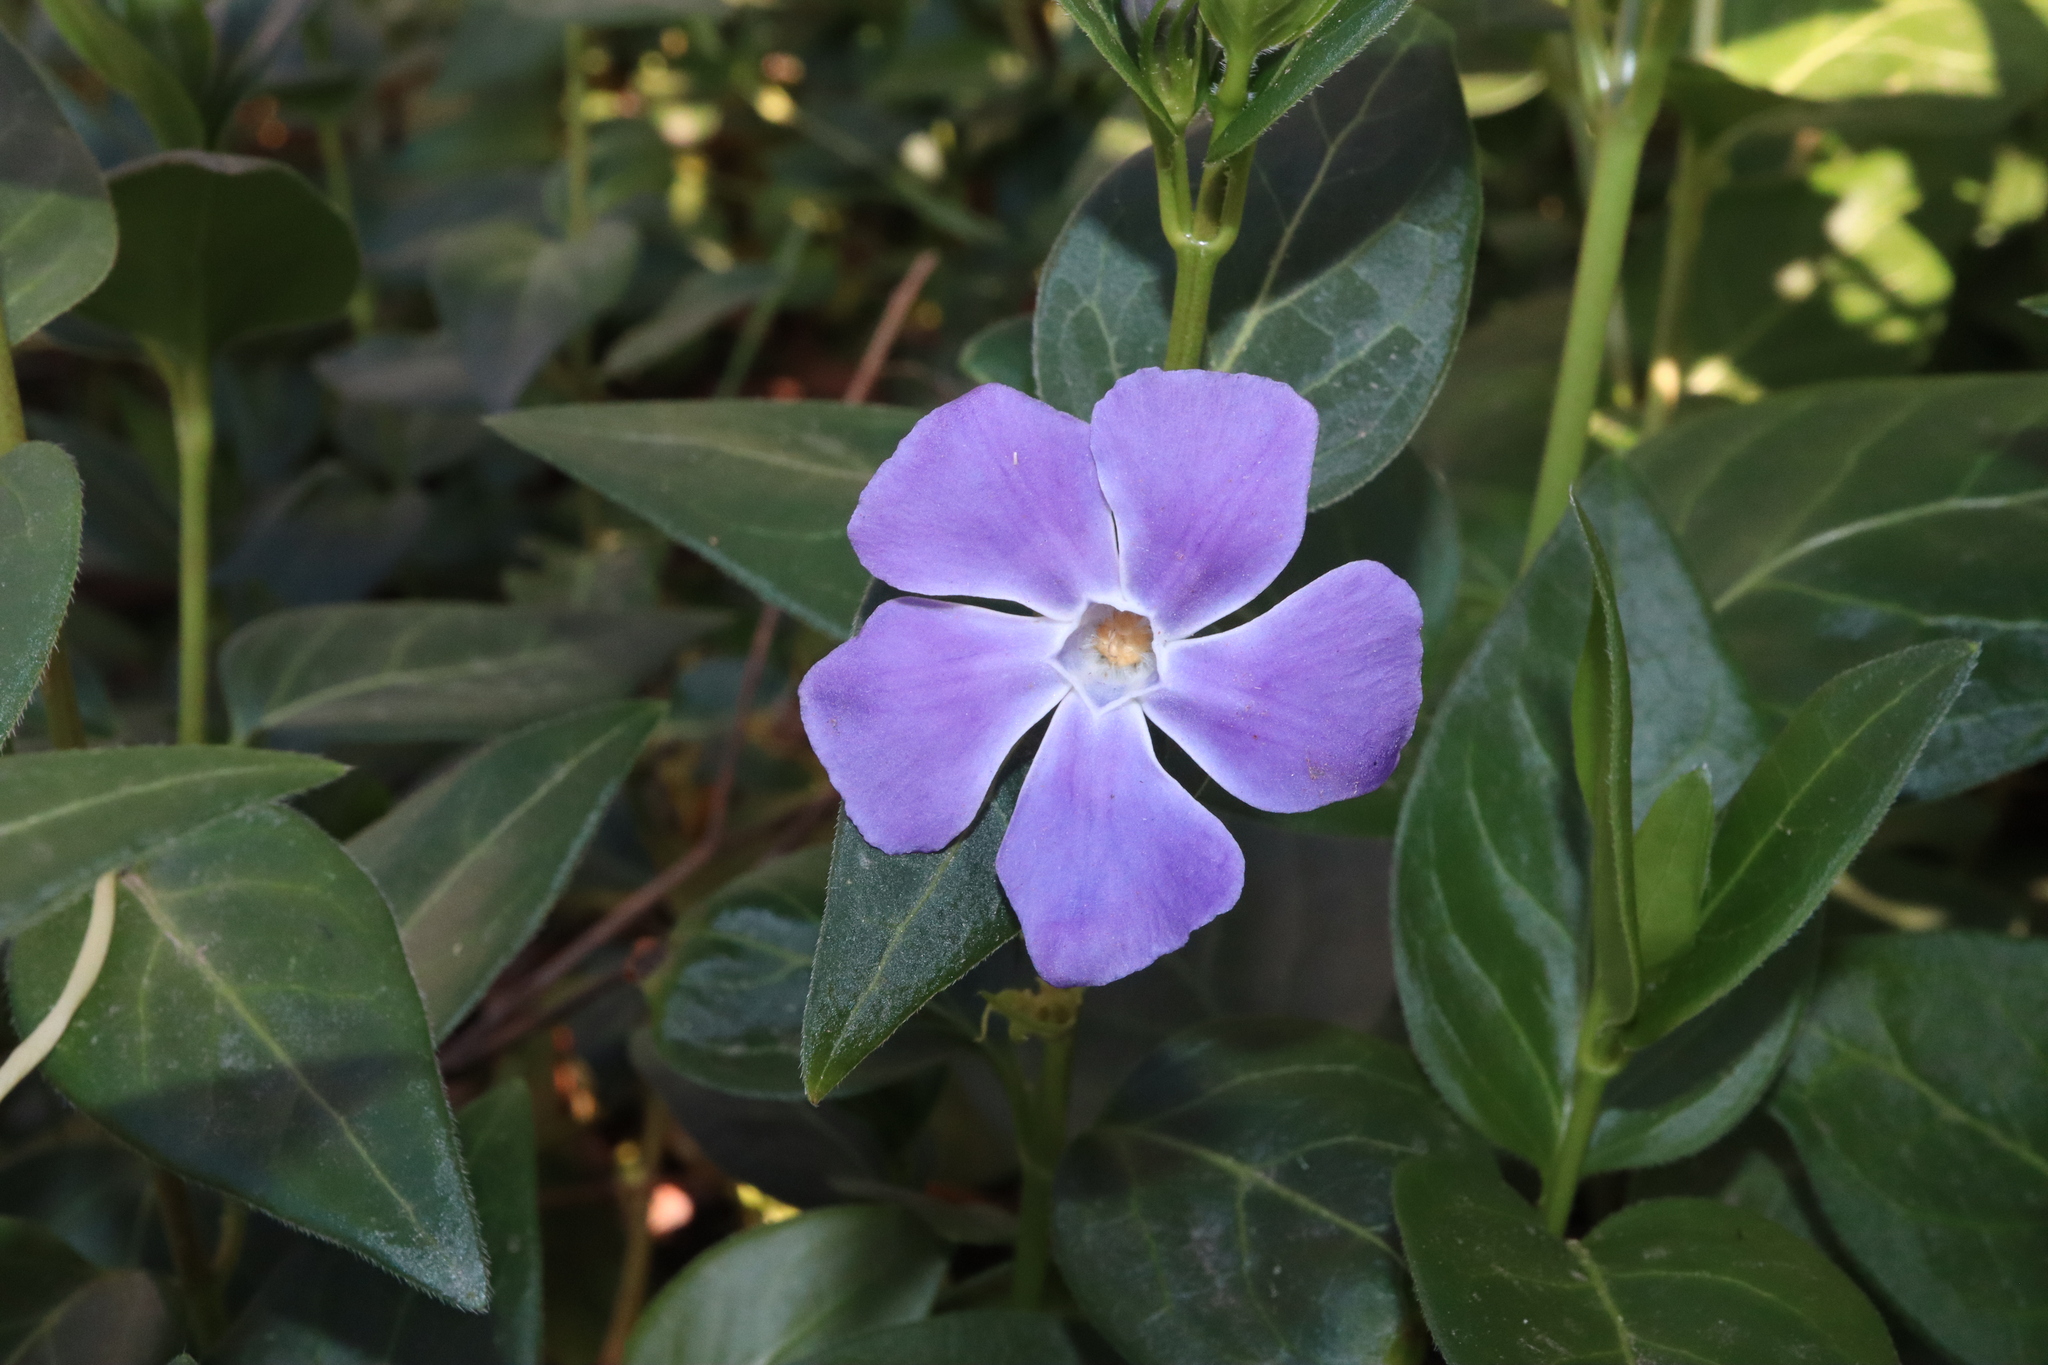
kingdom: Plantae
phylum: Tracheophyta
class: Magnoliopsida
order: Gentianales
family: Apocynaceae
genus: Vinca
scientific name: Vinca major
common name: Greater periwinkle
